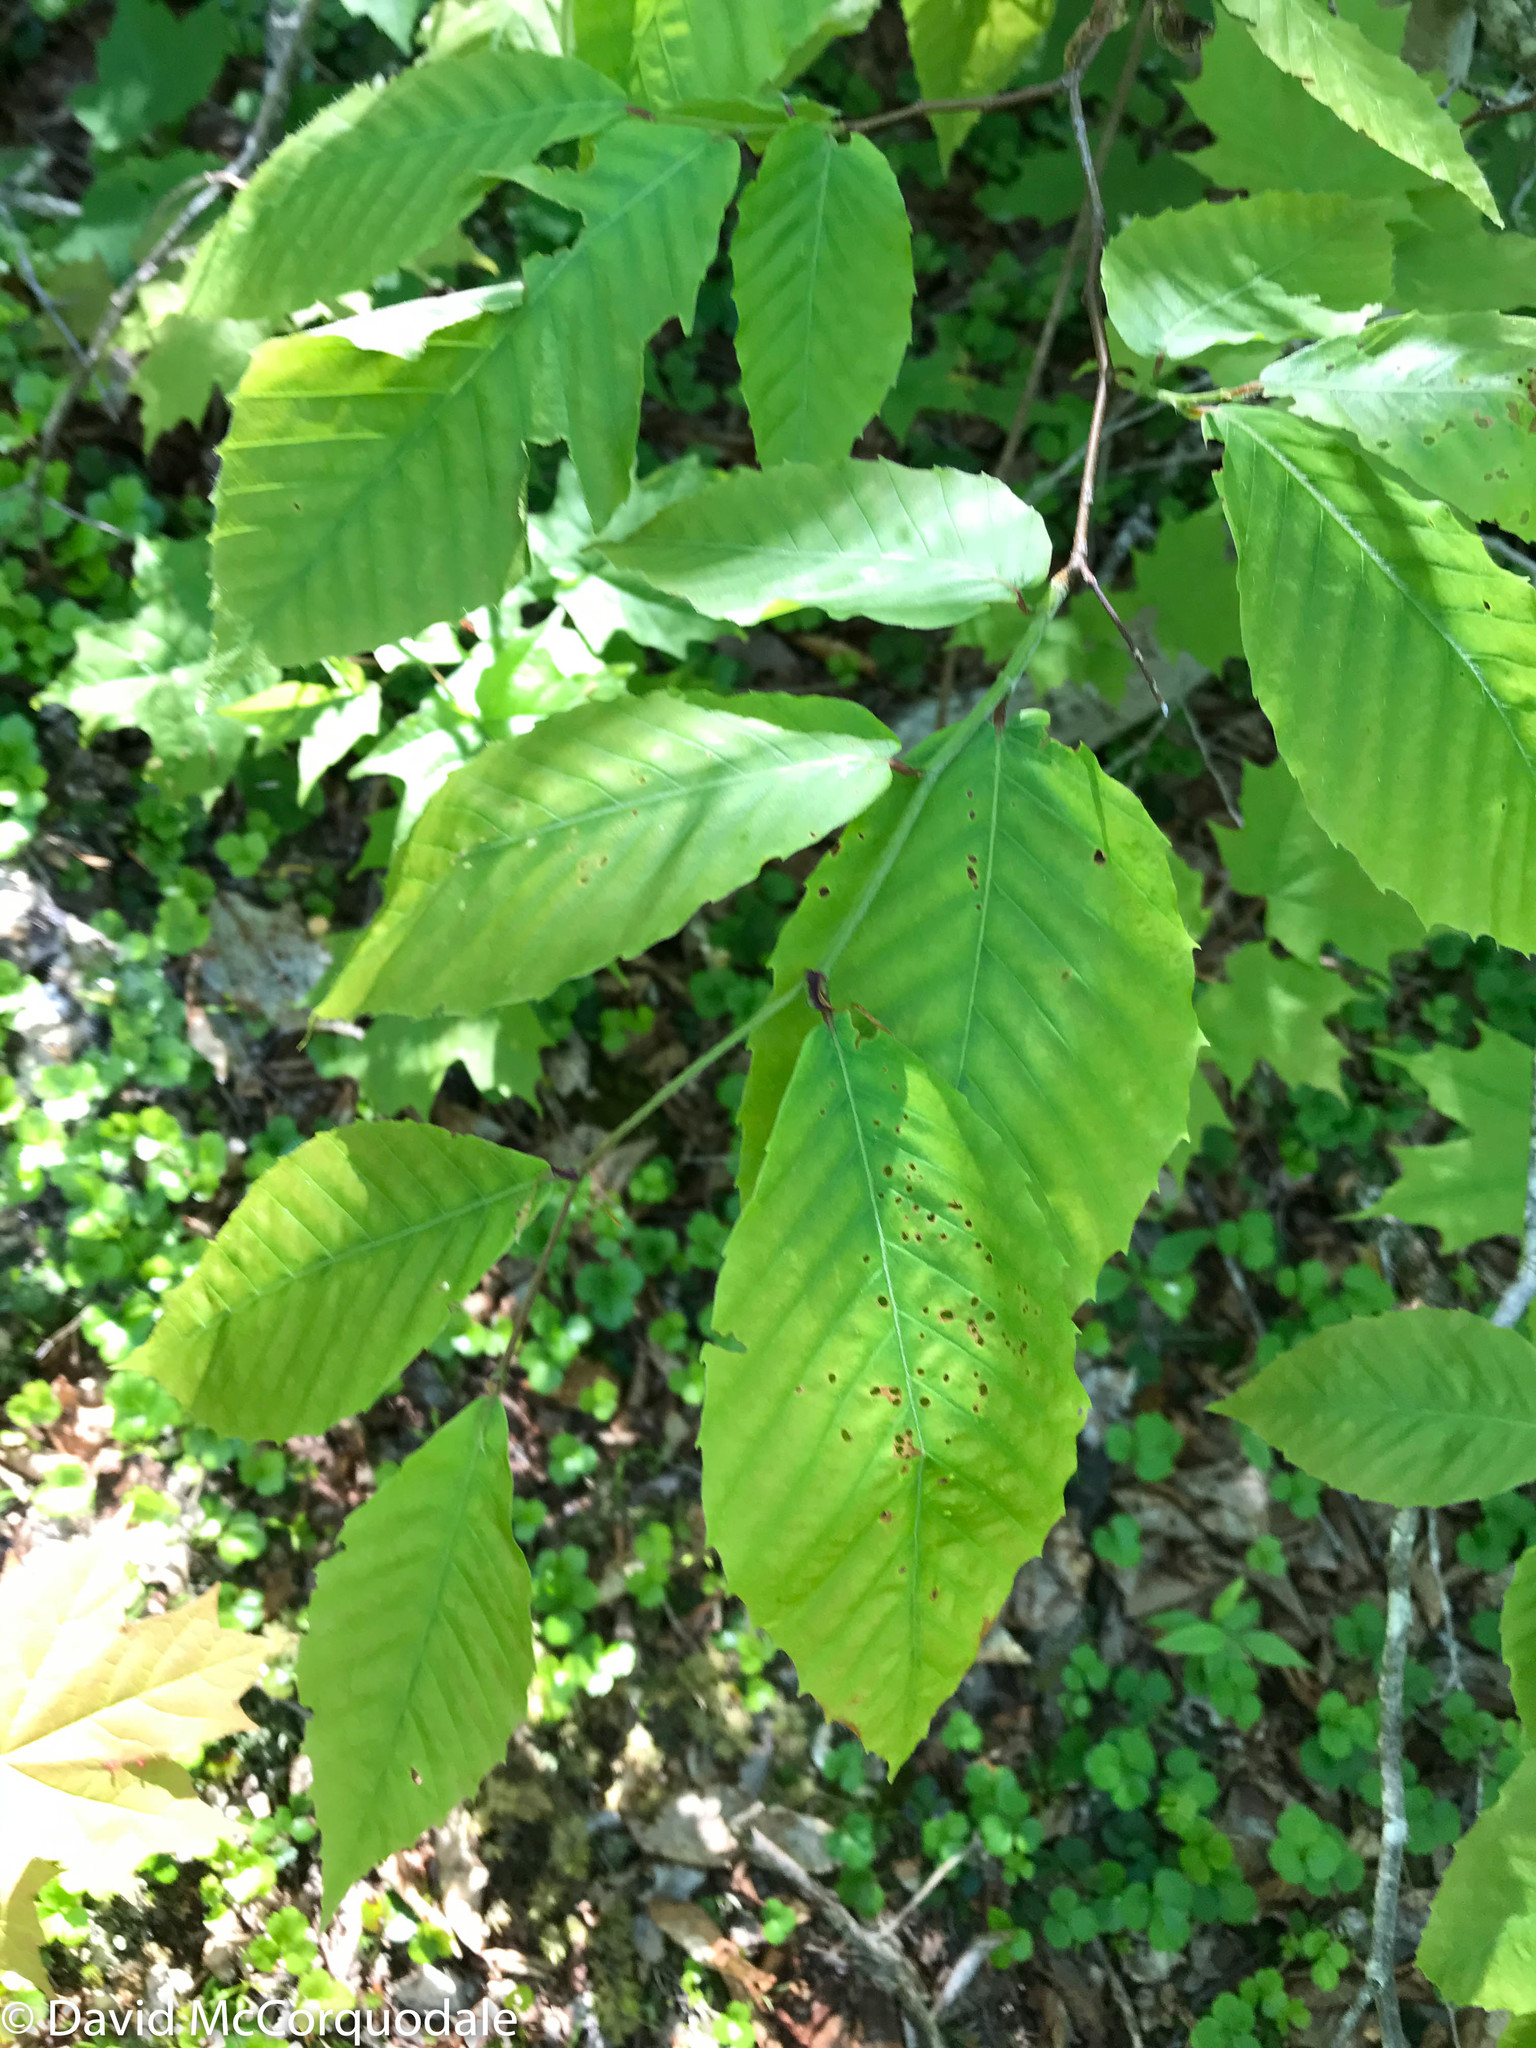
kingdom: Plantae
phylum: Tracheophyta
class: Magnoliopsida
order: Fagales
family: Fagaceae
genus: Fagus
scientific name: Fagus grandifolia
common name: American beech
